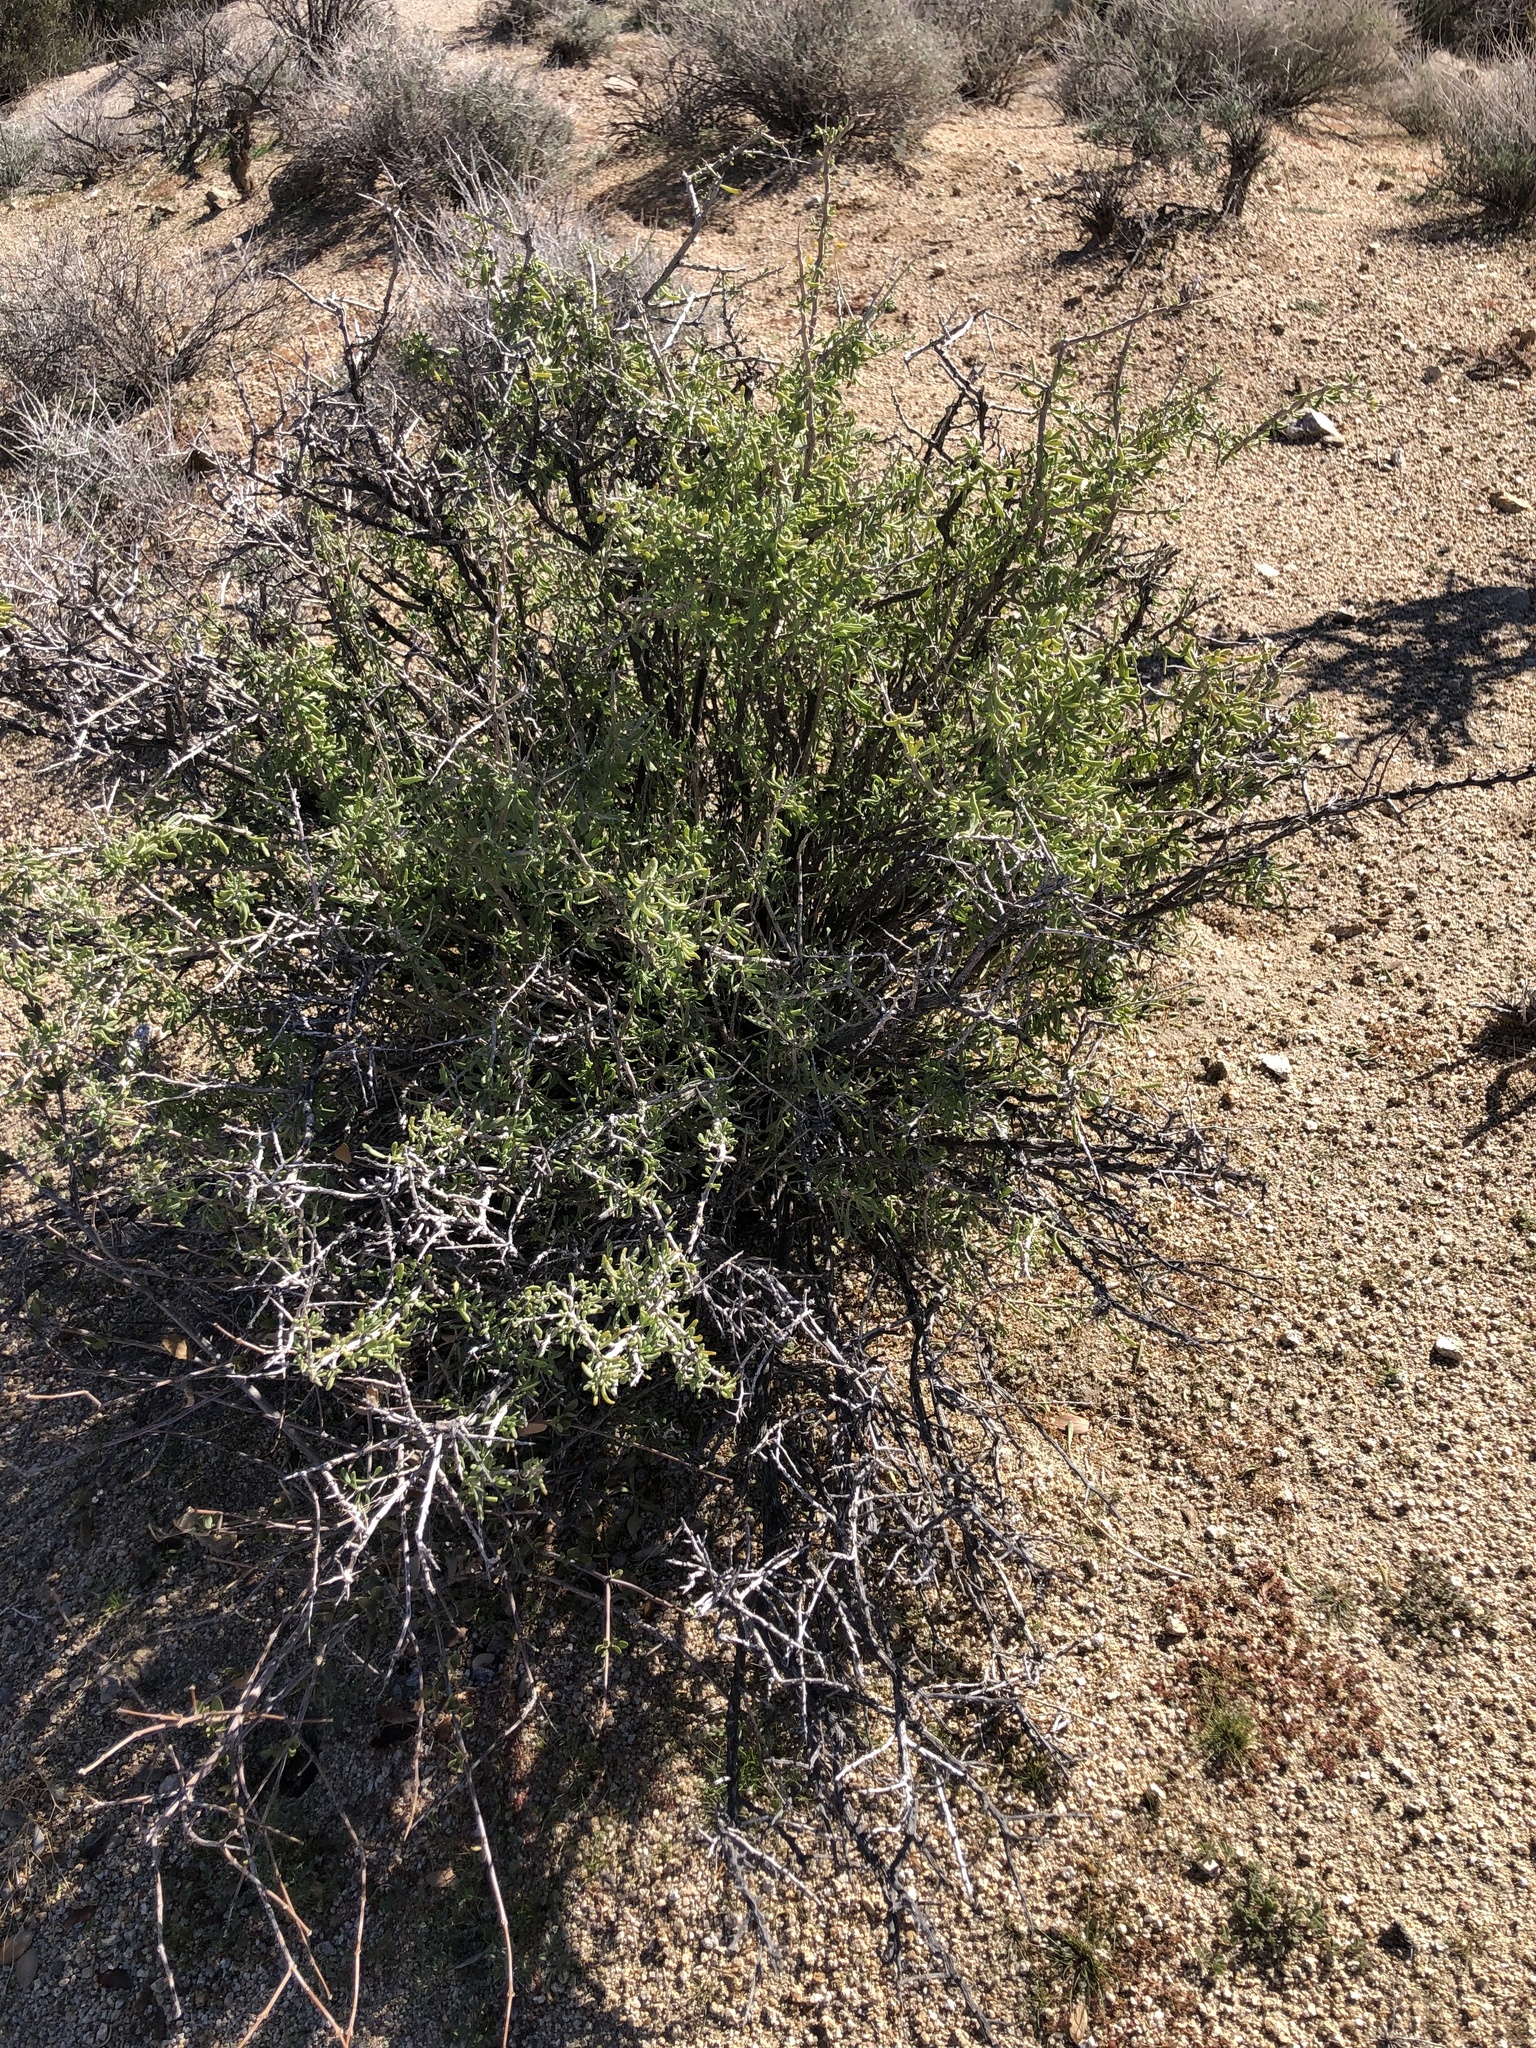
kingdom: Plantae
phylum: Tracheophyta
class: Magnoliopsida
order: Solanales
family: Solanaceae
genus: Lycium
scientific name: Lycium andersonii
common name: Water-jacket
